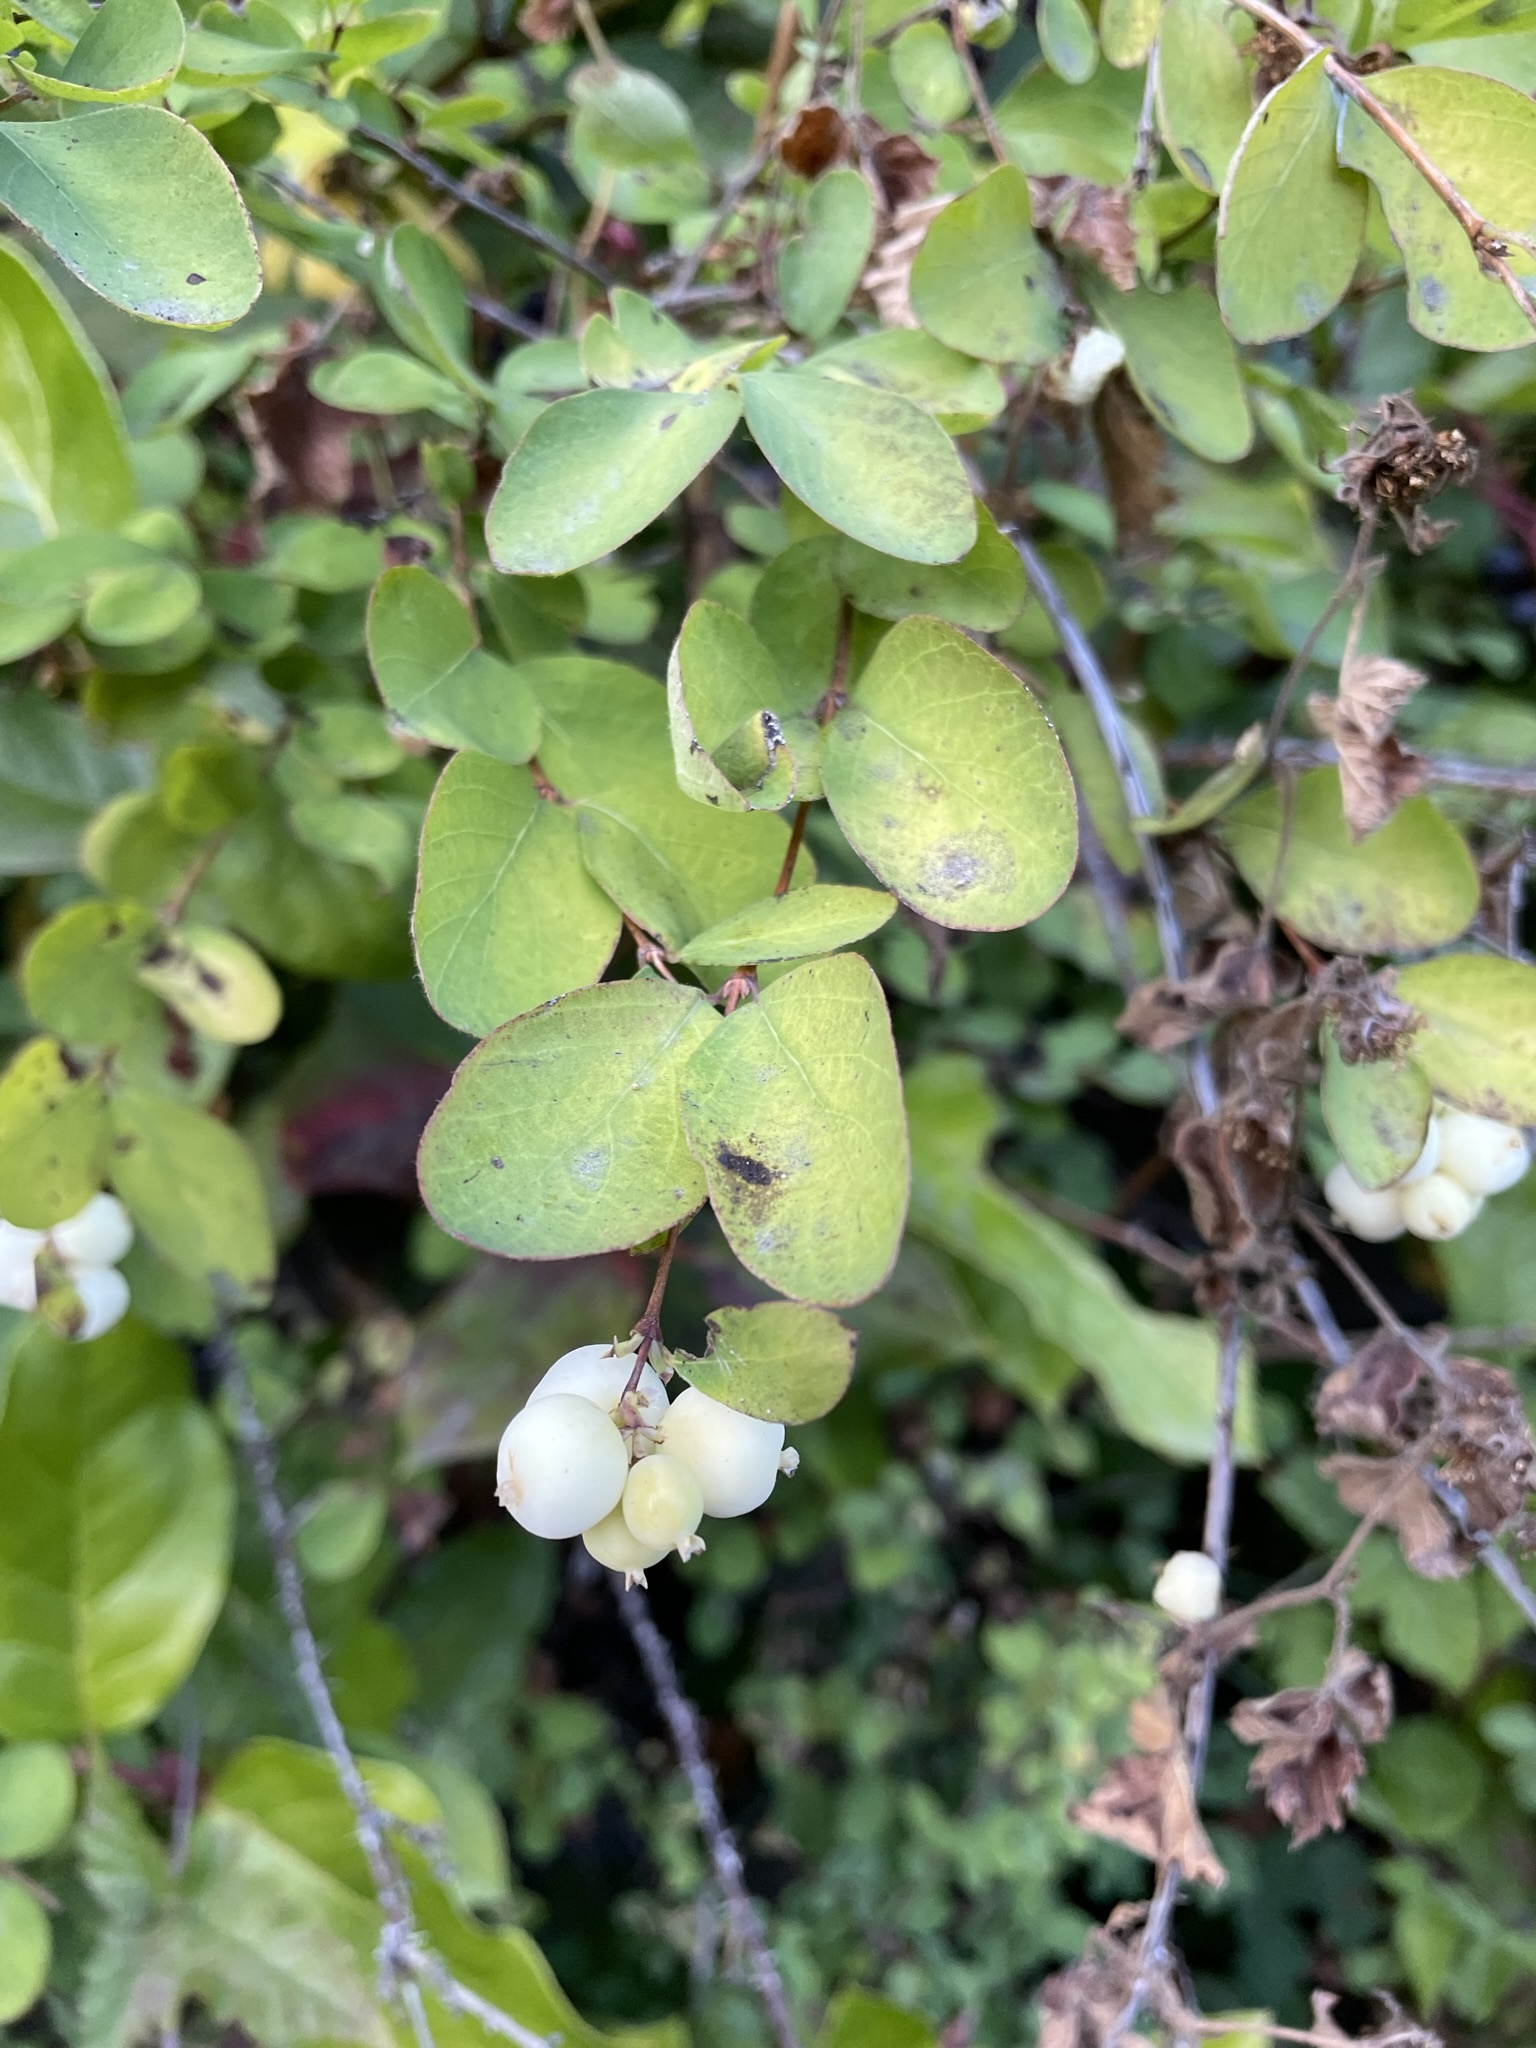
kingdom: Plantae
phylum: Tracheophyta
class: Magnoliopsida
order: Dipsacales
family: Caprifoliaceae
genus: Symphoricarpos
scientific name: Symphoricarpos albus
